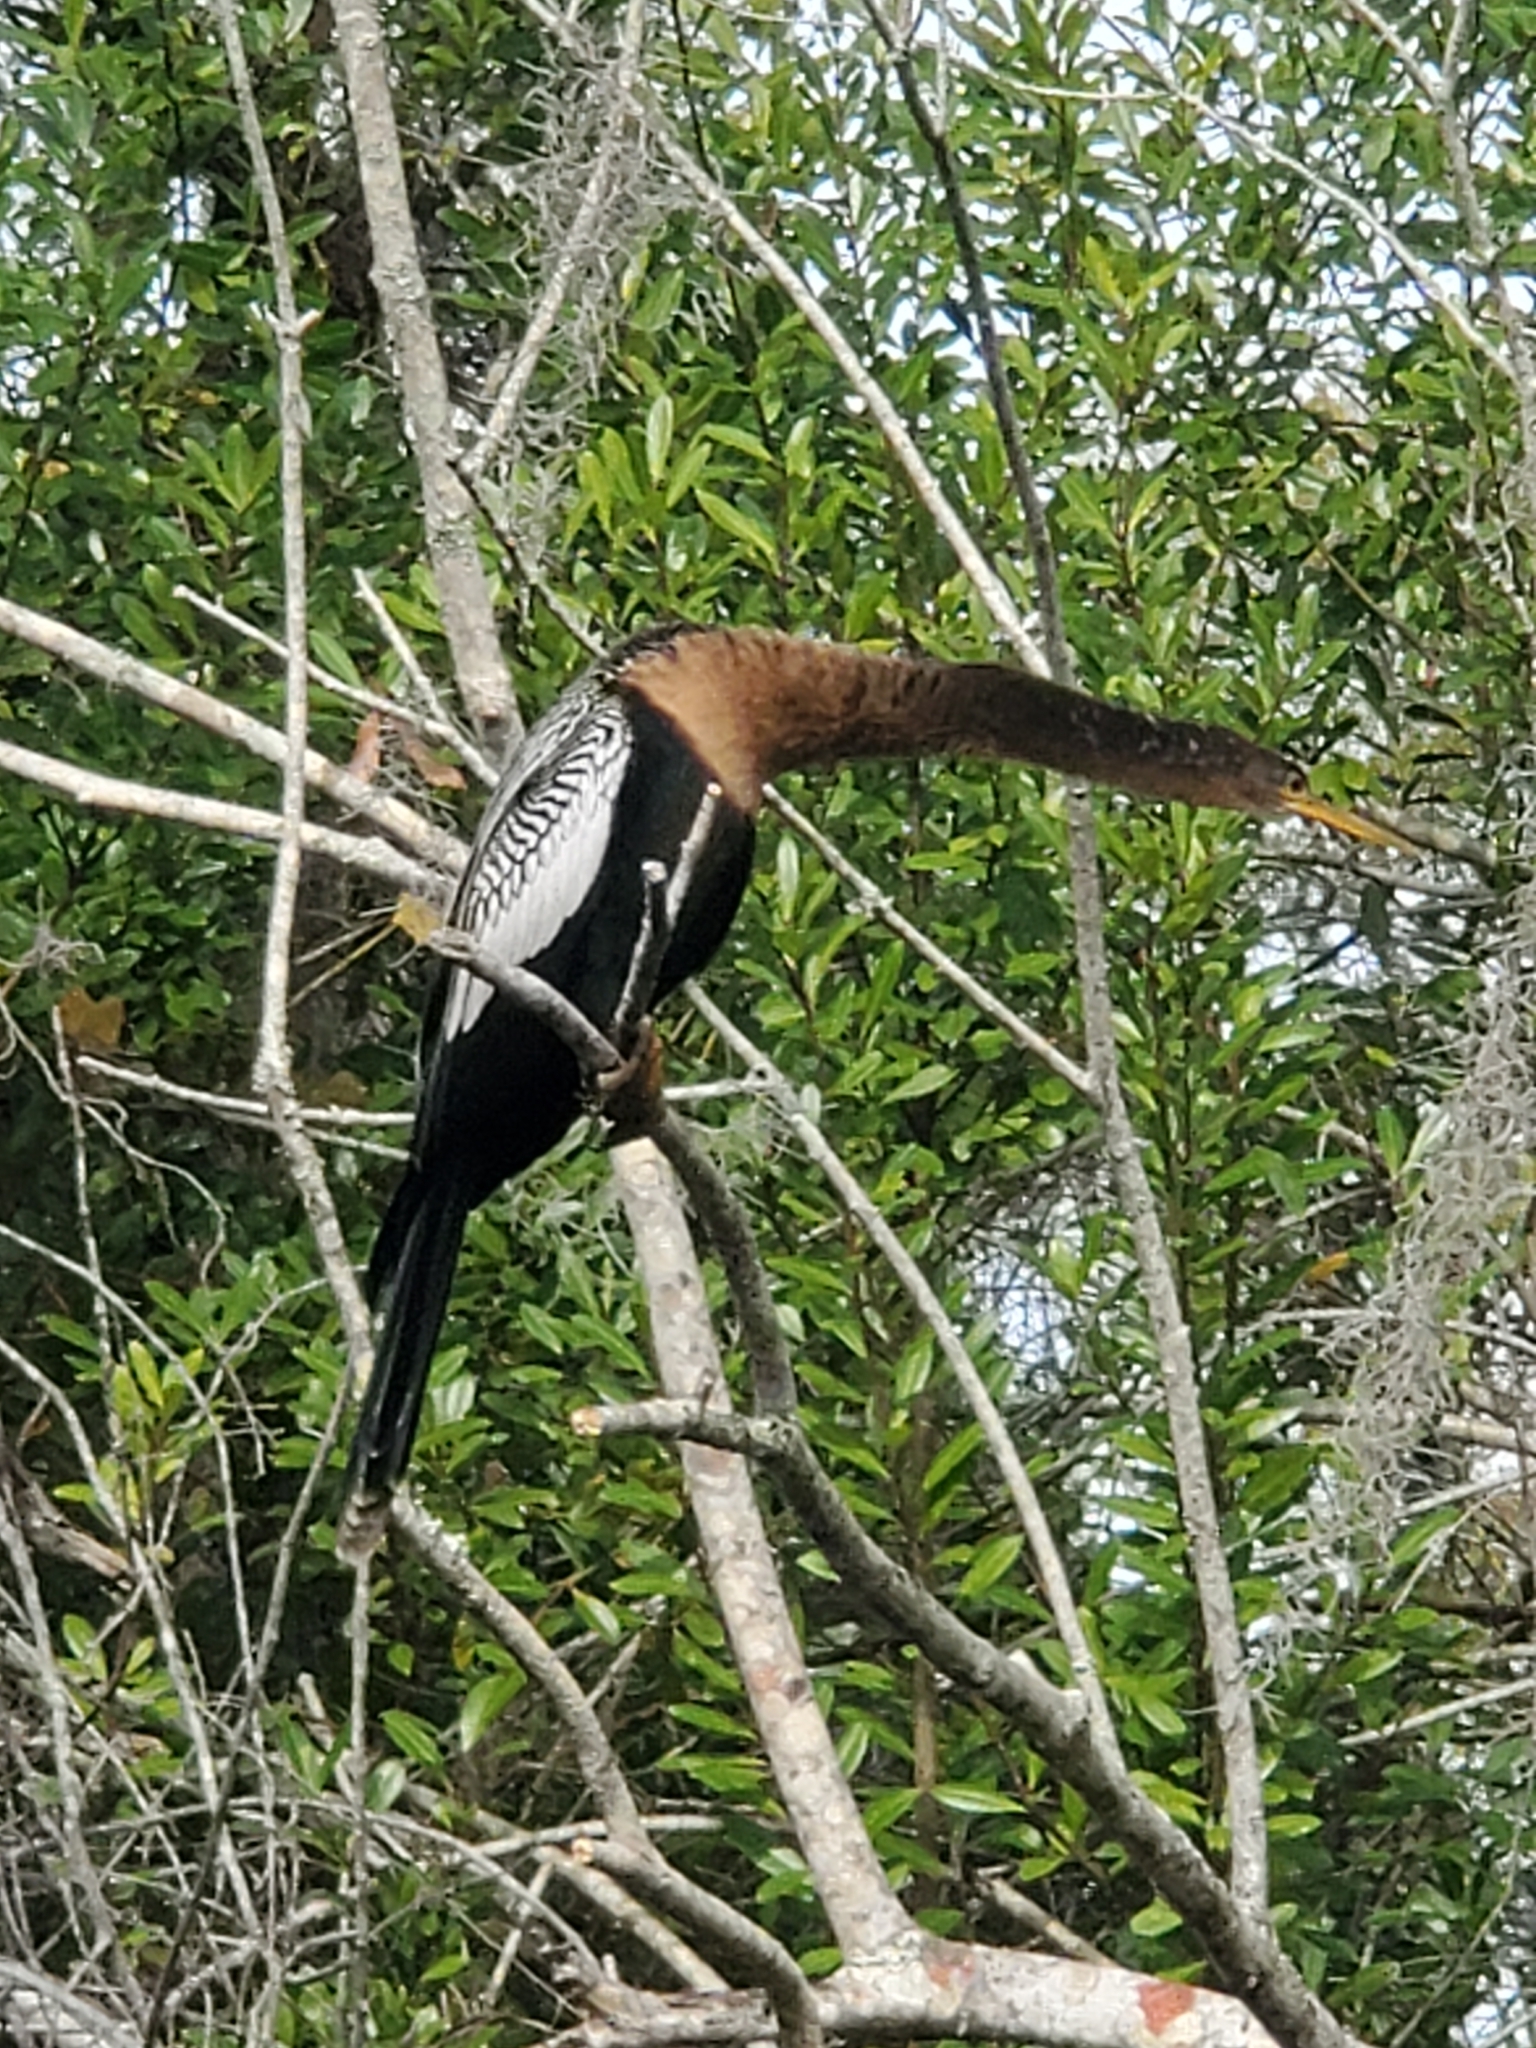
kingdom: Animalia
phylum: Chordata
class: Aves
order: Suliformes
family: Anhingidae
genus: Anhinga
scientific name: Anhinga anhinga
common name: Anhinga
